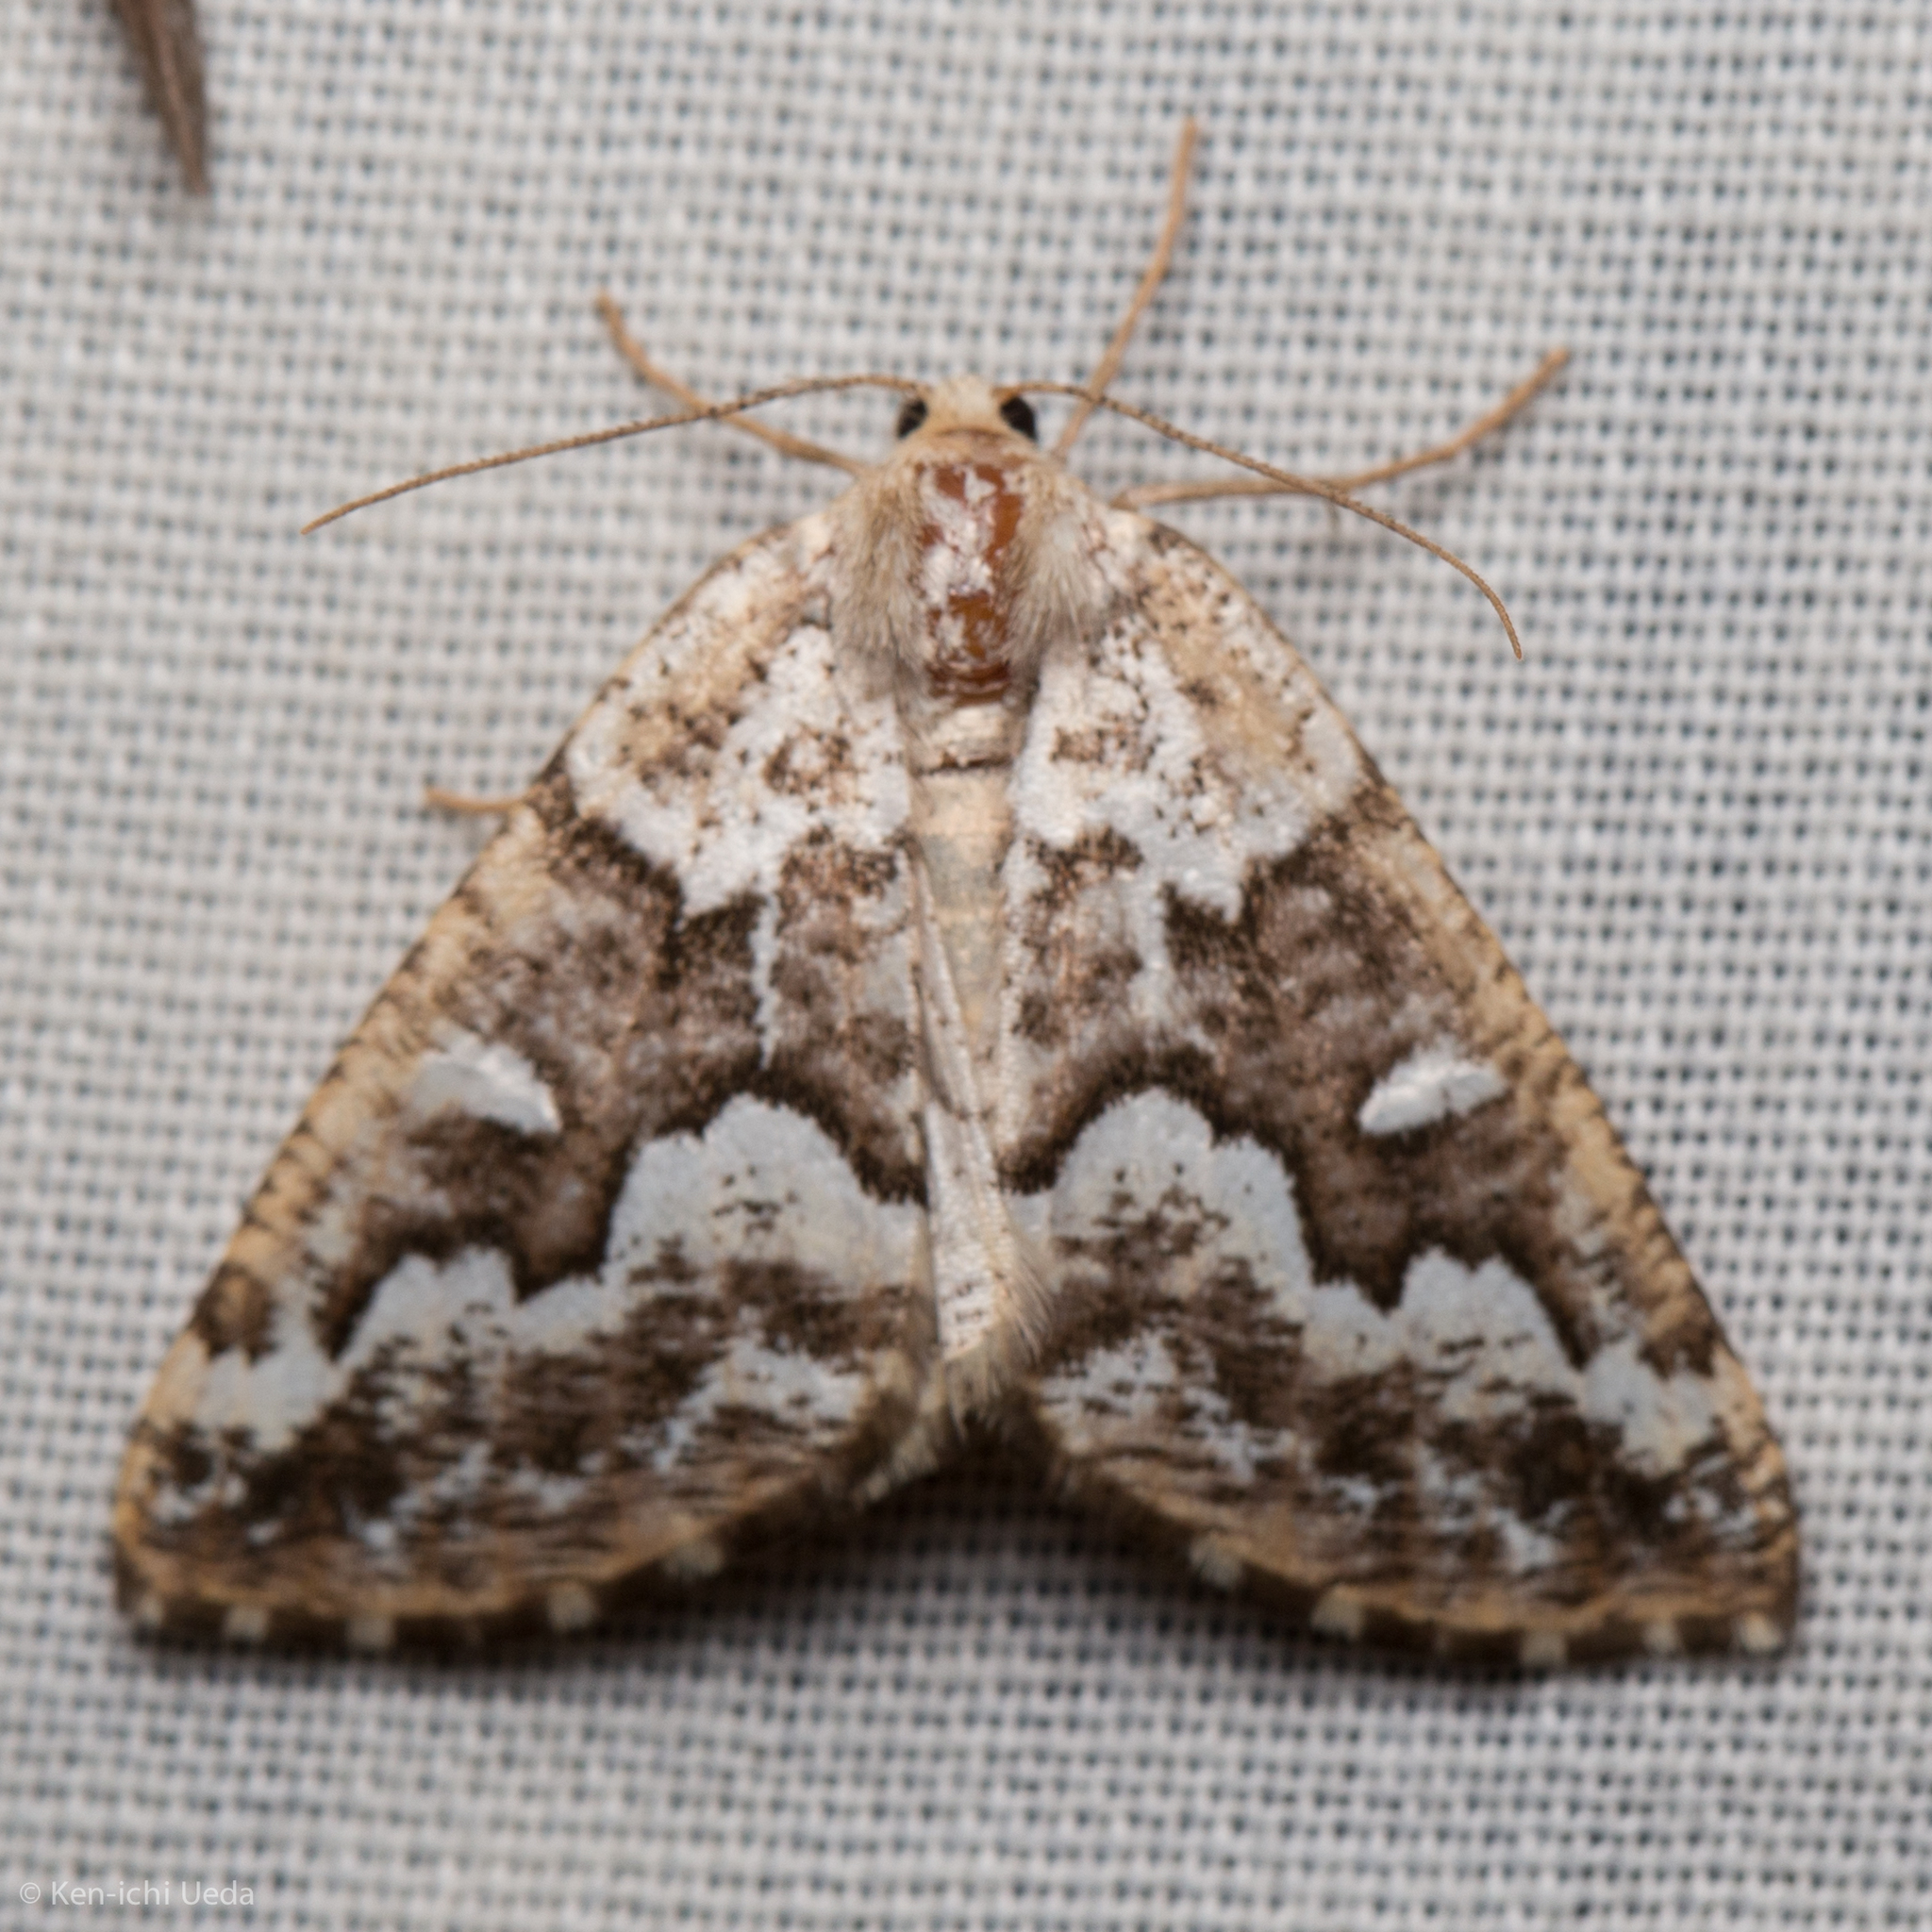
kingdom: Animalia
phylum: Arthropoda
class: Insecta
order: Lepidoptera
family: Geometridae
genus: Caripeta
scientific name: Caripeta divisata
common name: Gray spruce looper
